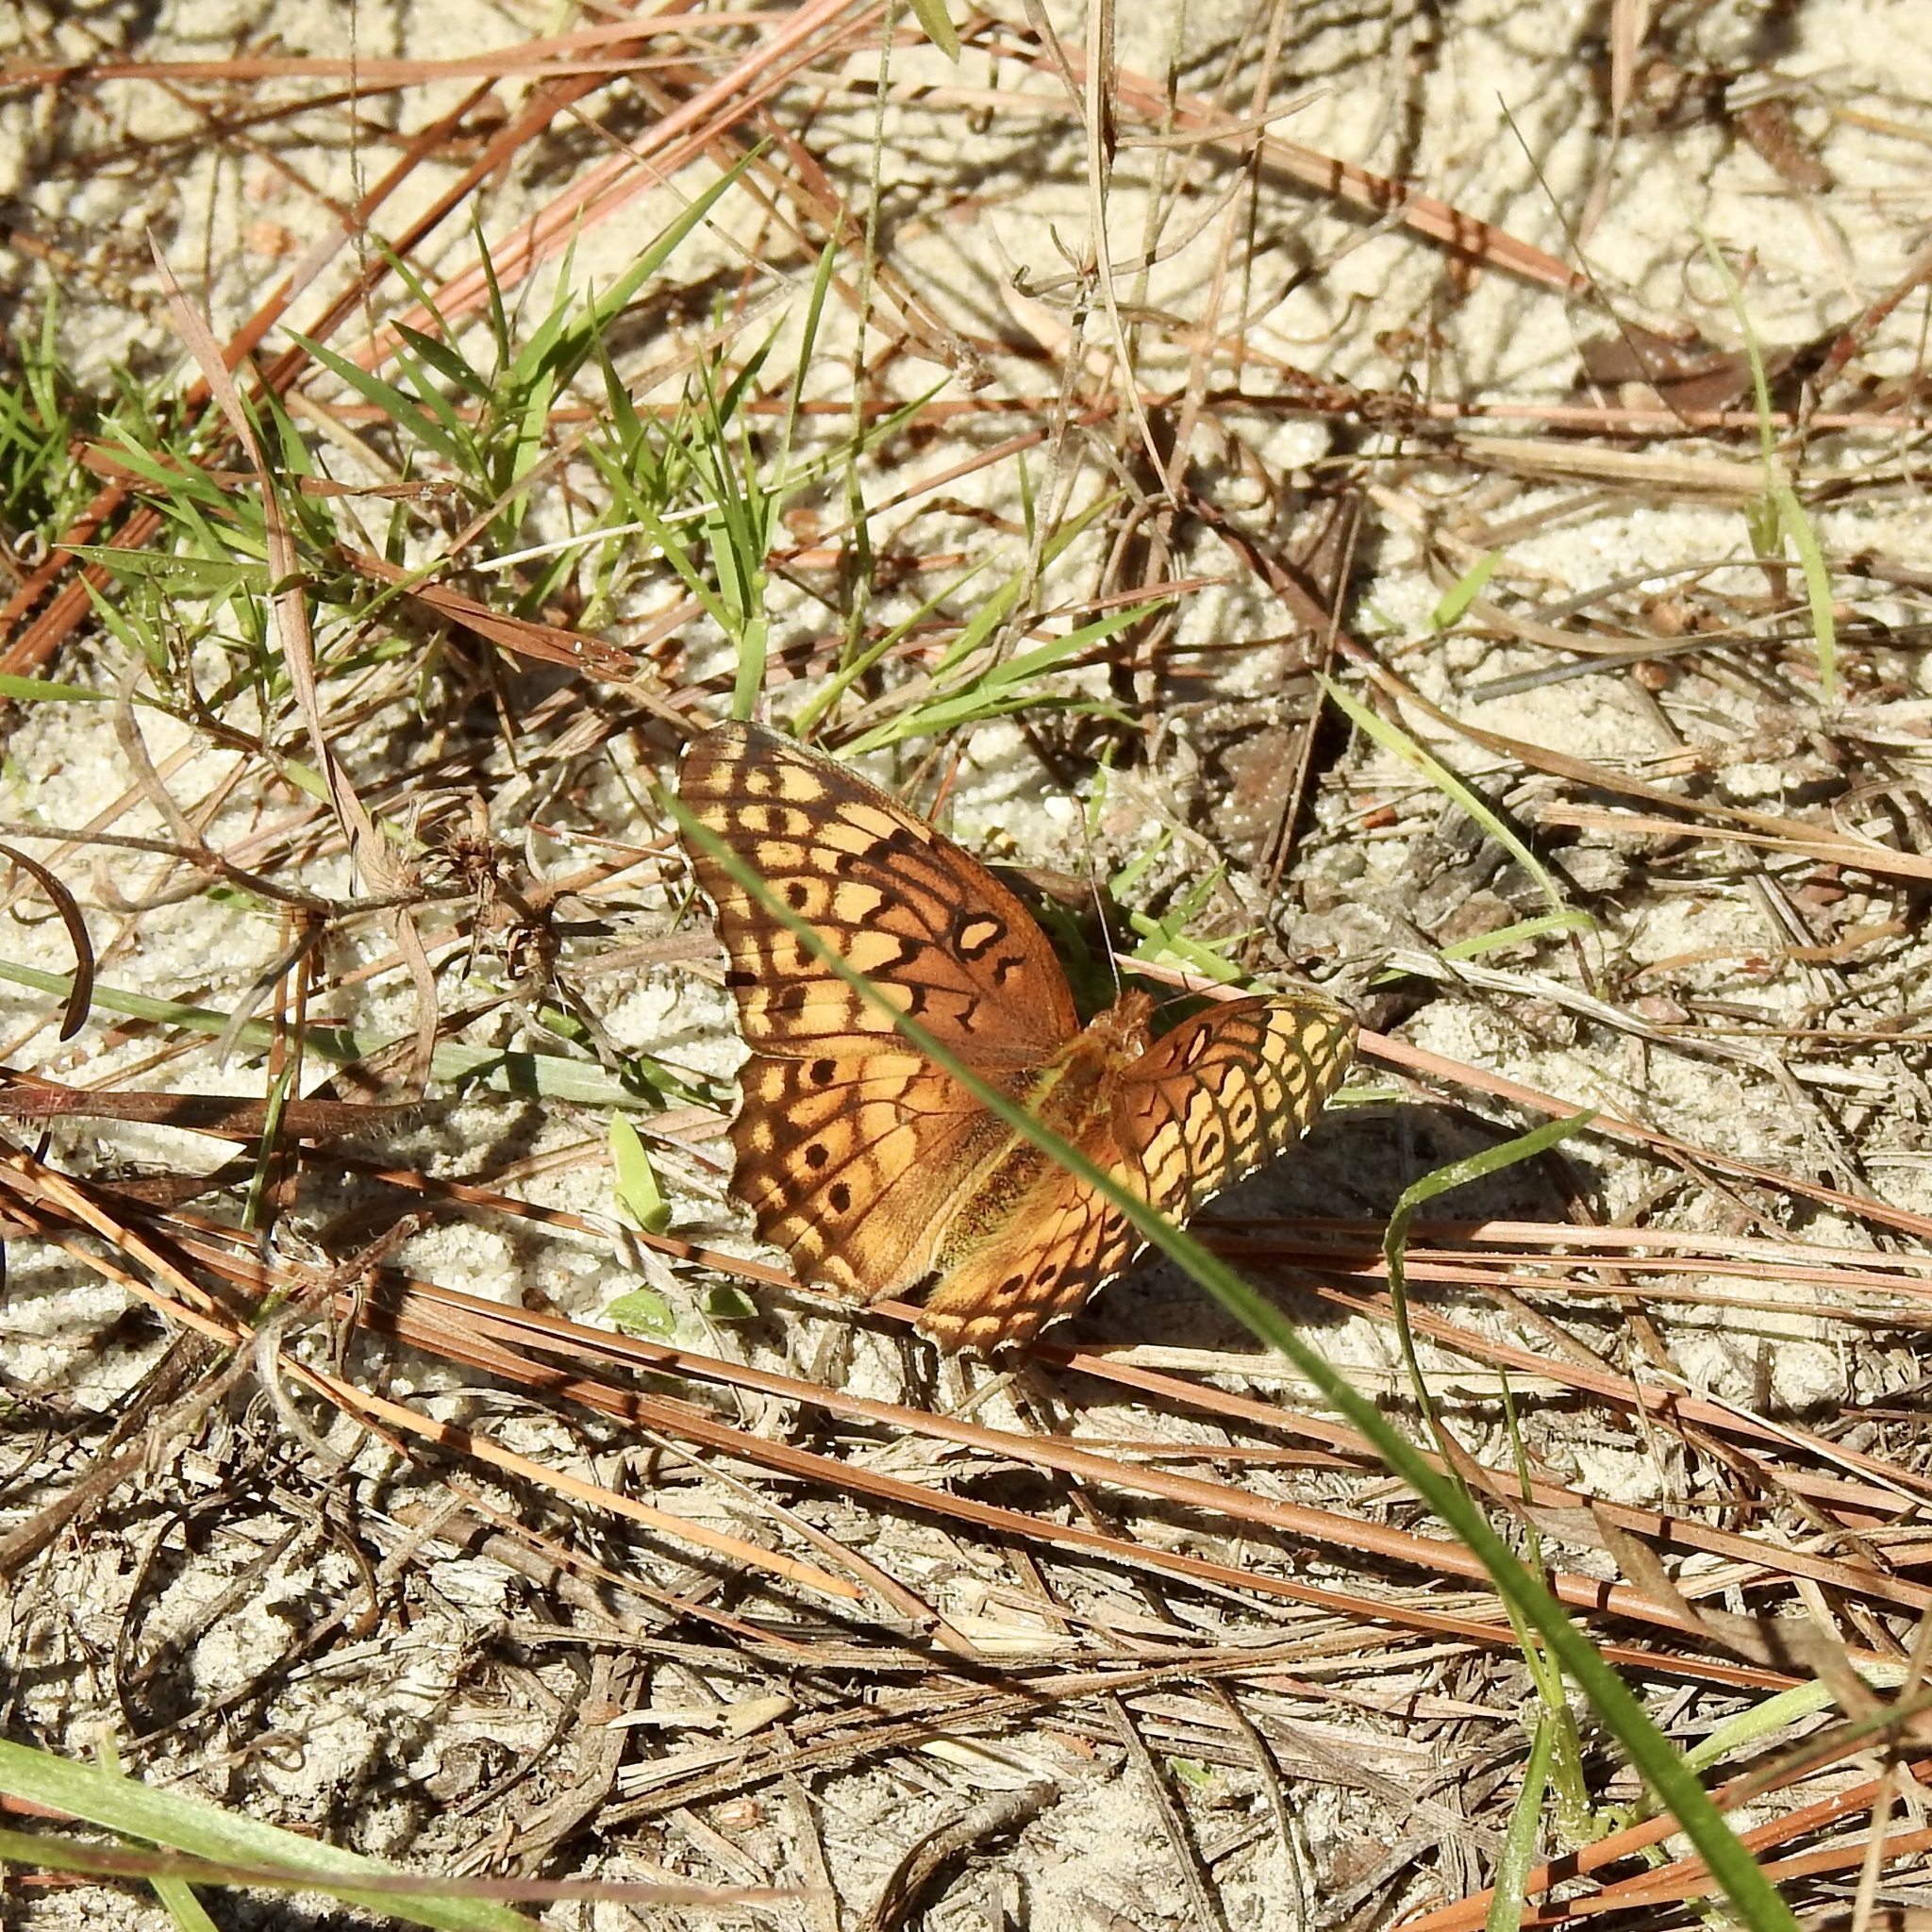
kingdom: Animalia
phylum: Arthropoda
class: Insecta
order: Lepidoptera
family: Nymphalidae
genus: Euptoieta
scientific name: Euptoieta claudia
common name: Variegated fritillary
